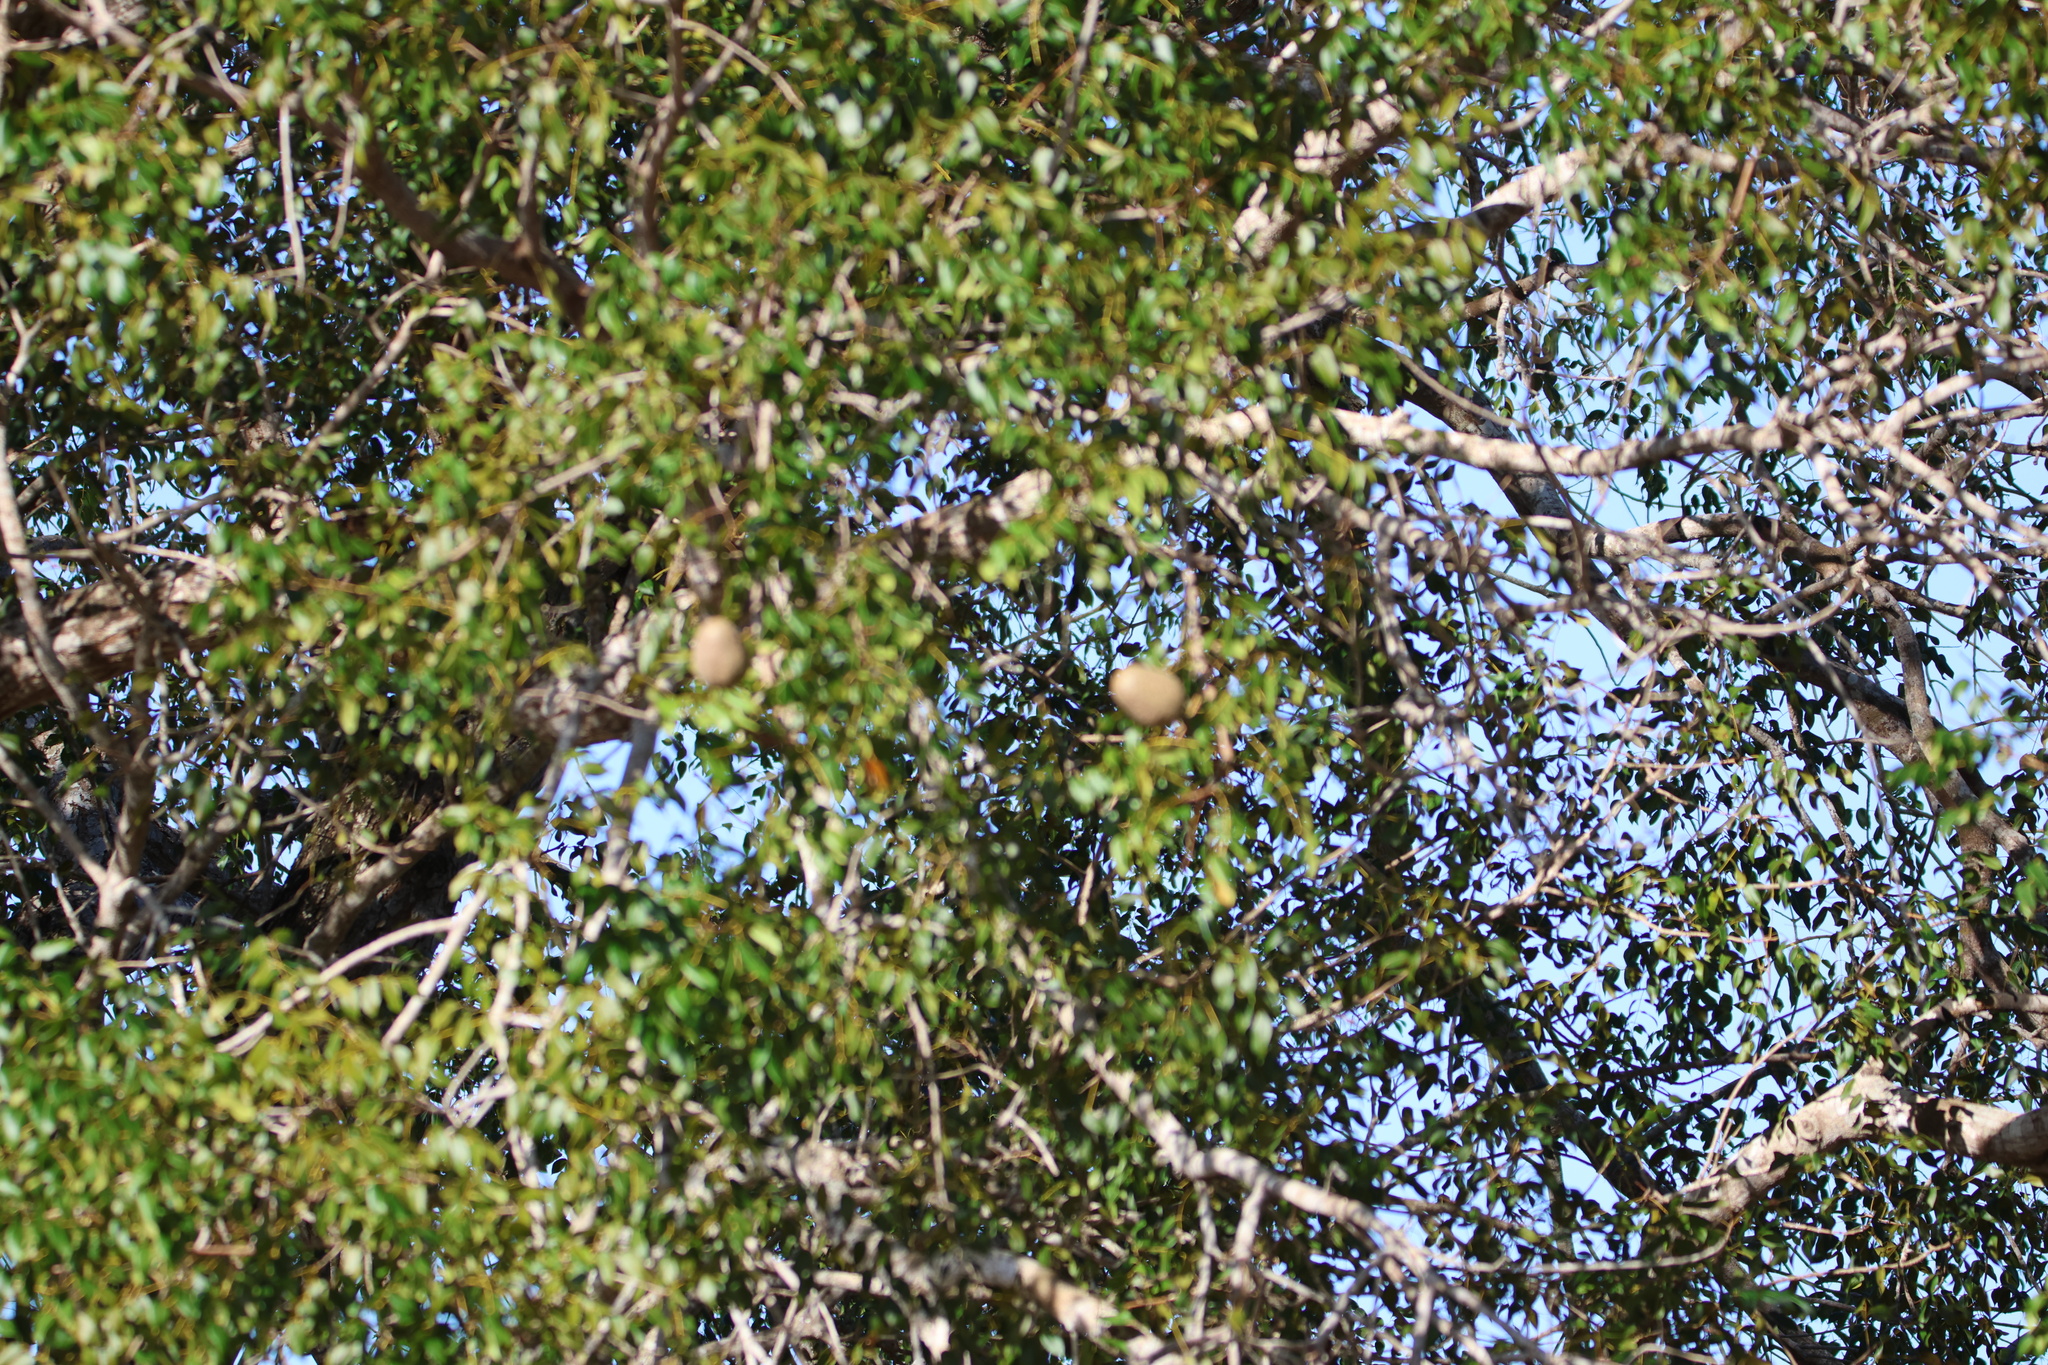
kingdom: Plantae
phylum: Tracheophyta
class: Magnoliopsida
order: Sapindales
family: Meliaceae
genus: Swietenia
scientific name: Swietenia mahagoni
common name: West indian mahogany
